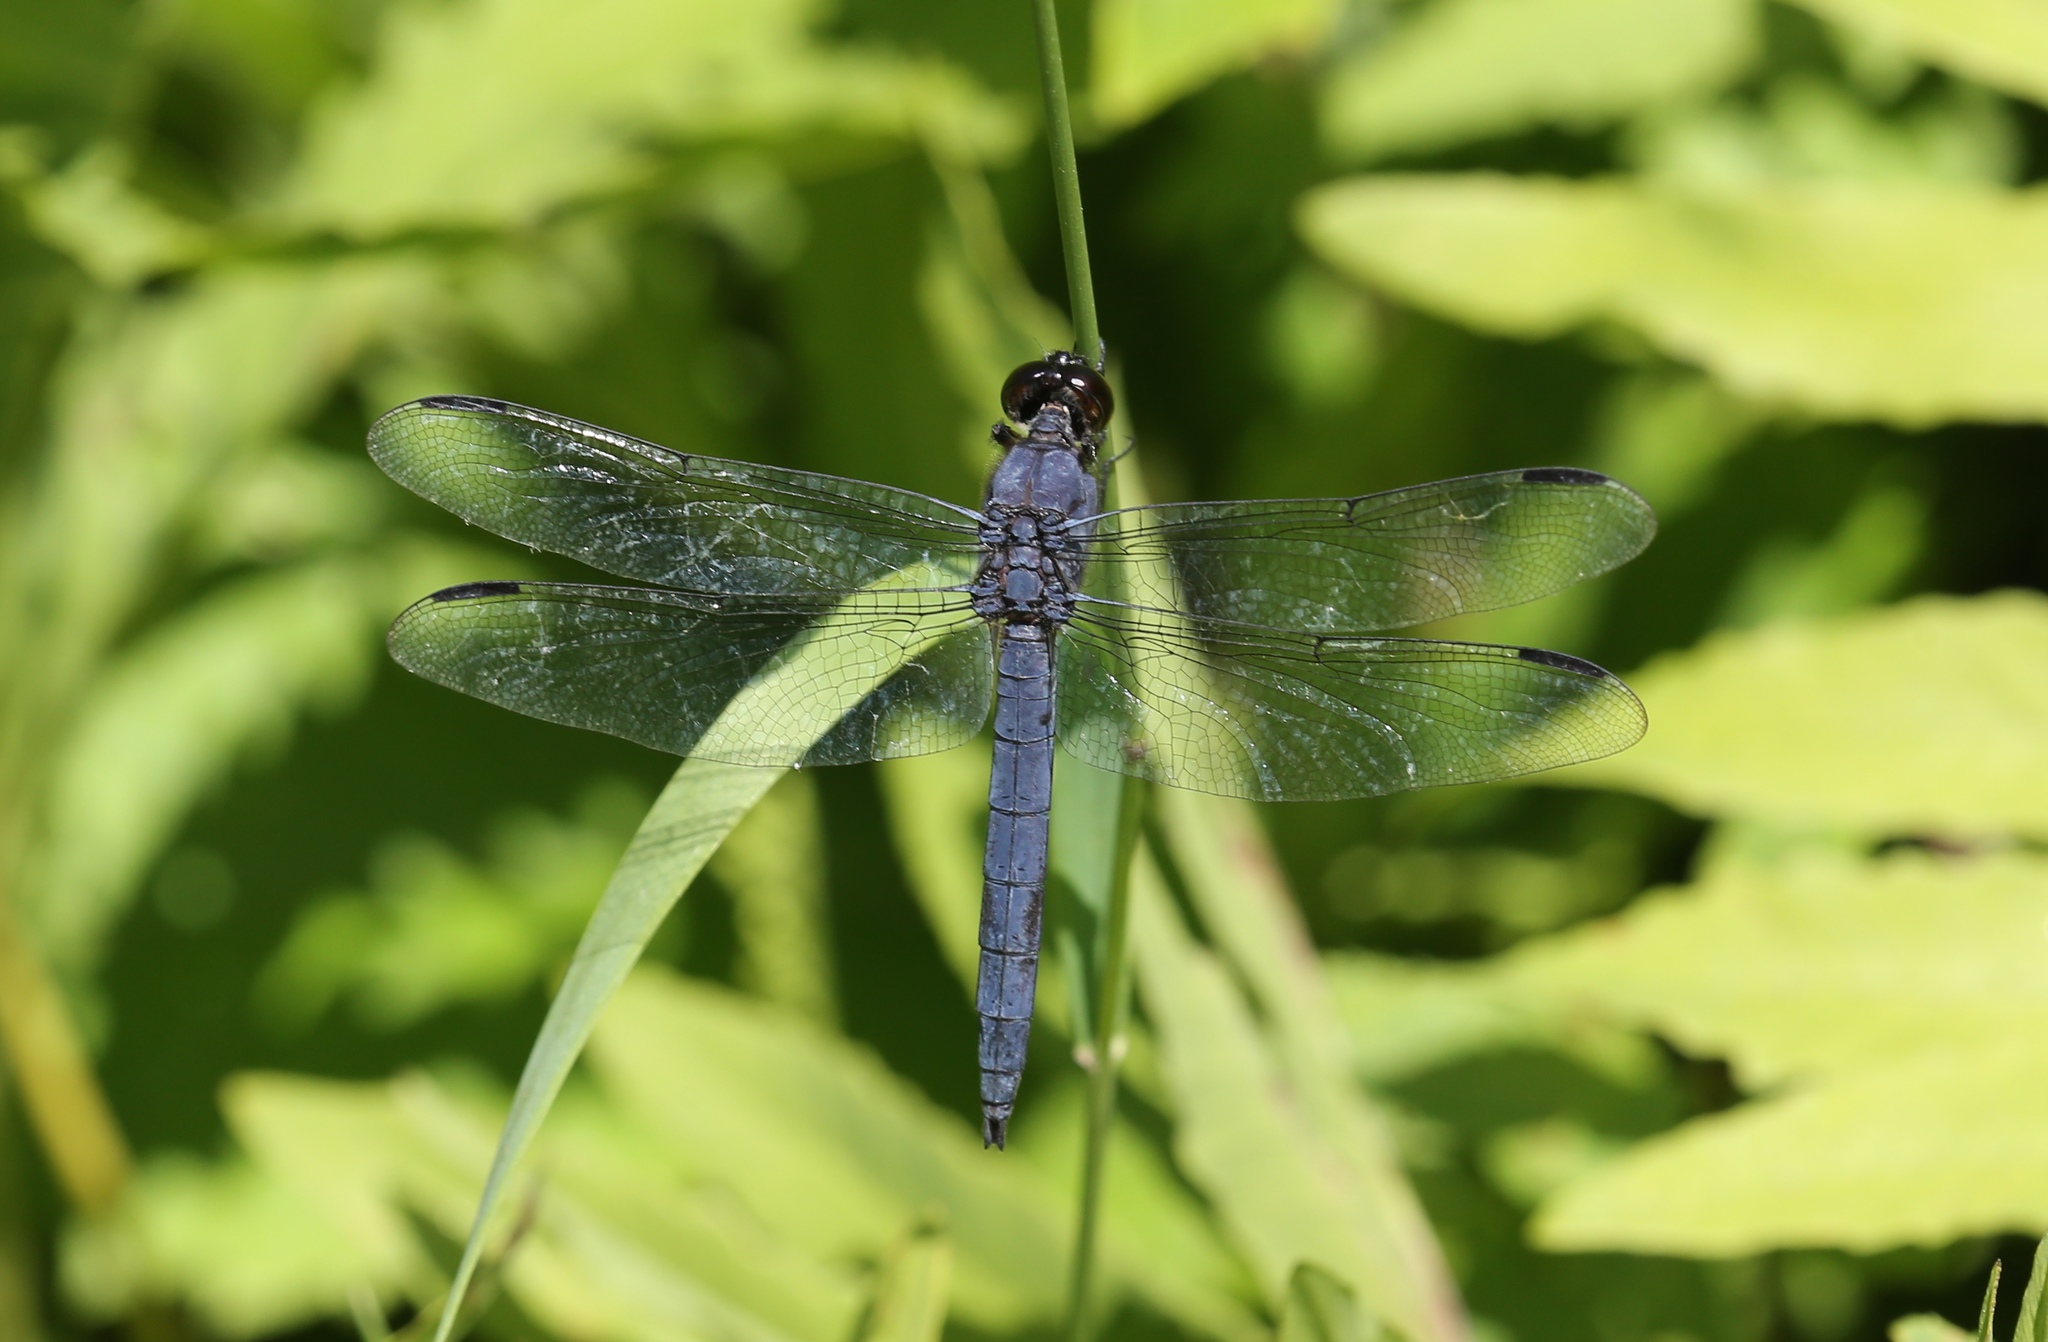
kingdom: Animalia
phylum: Arthropoda
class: Insecta
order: Odonata
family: Libellulidae
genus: Libellula
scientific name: Libellula incesta
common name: Slaty skimmer
